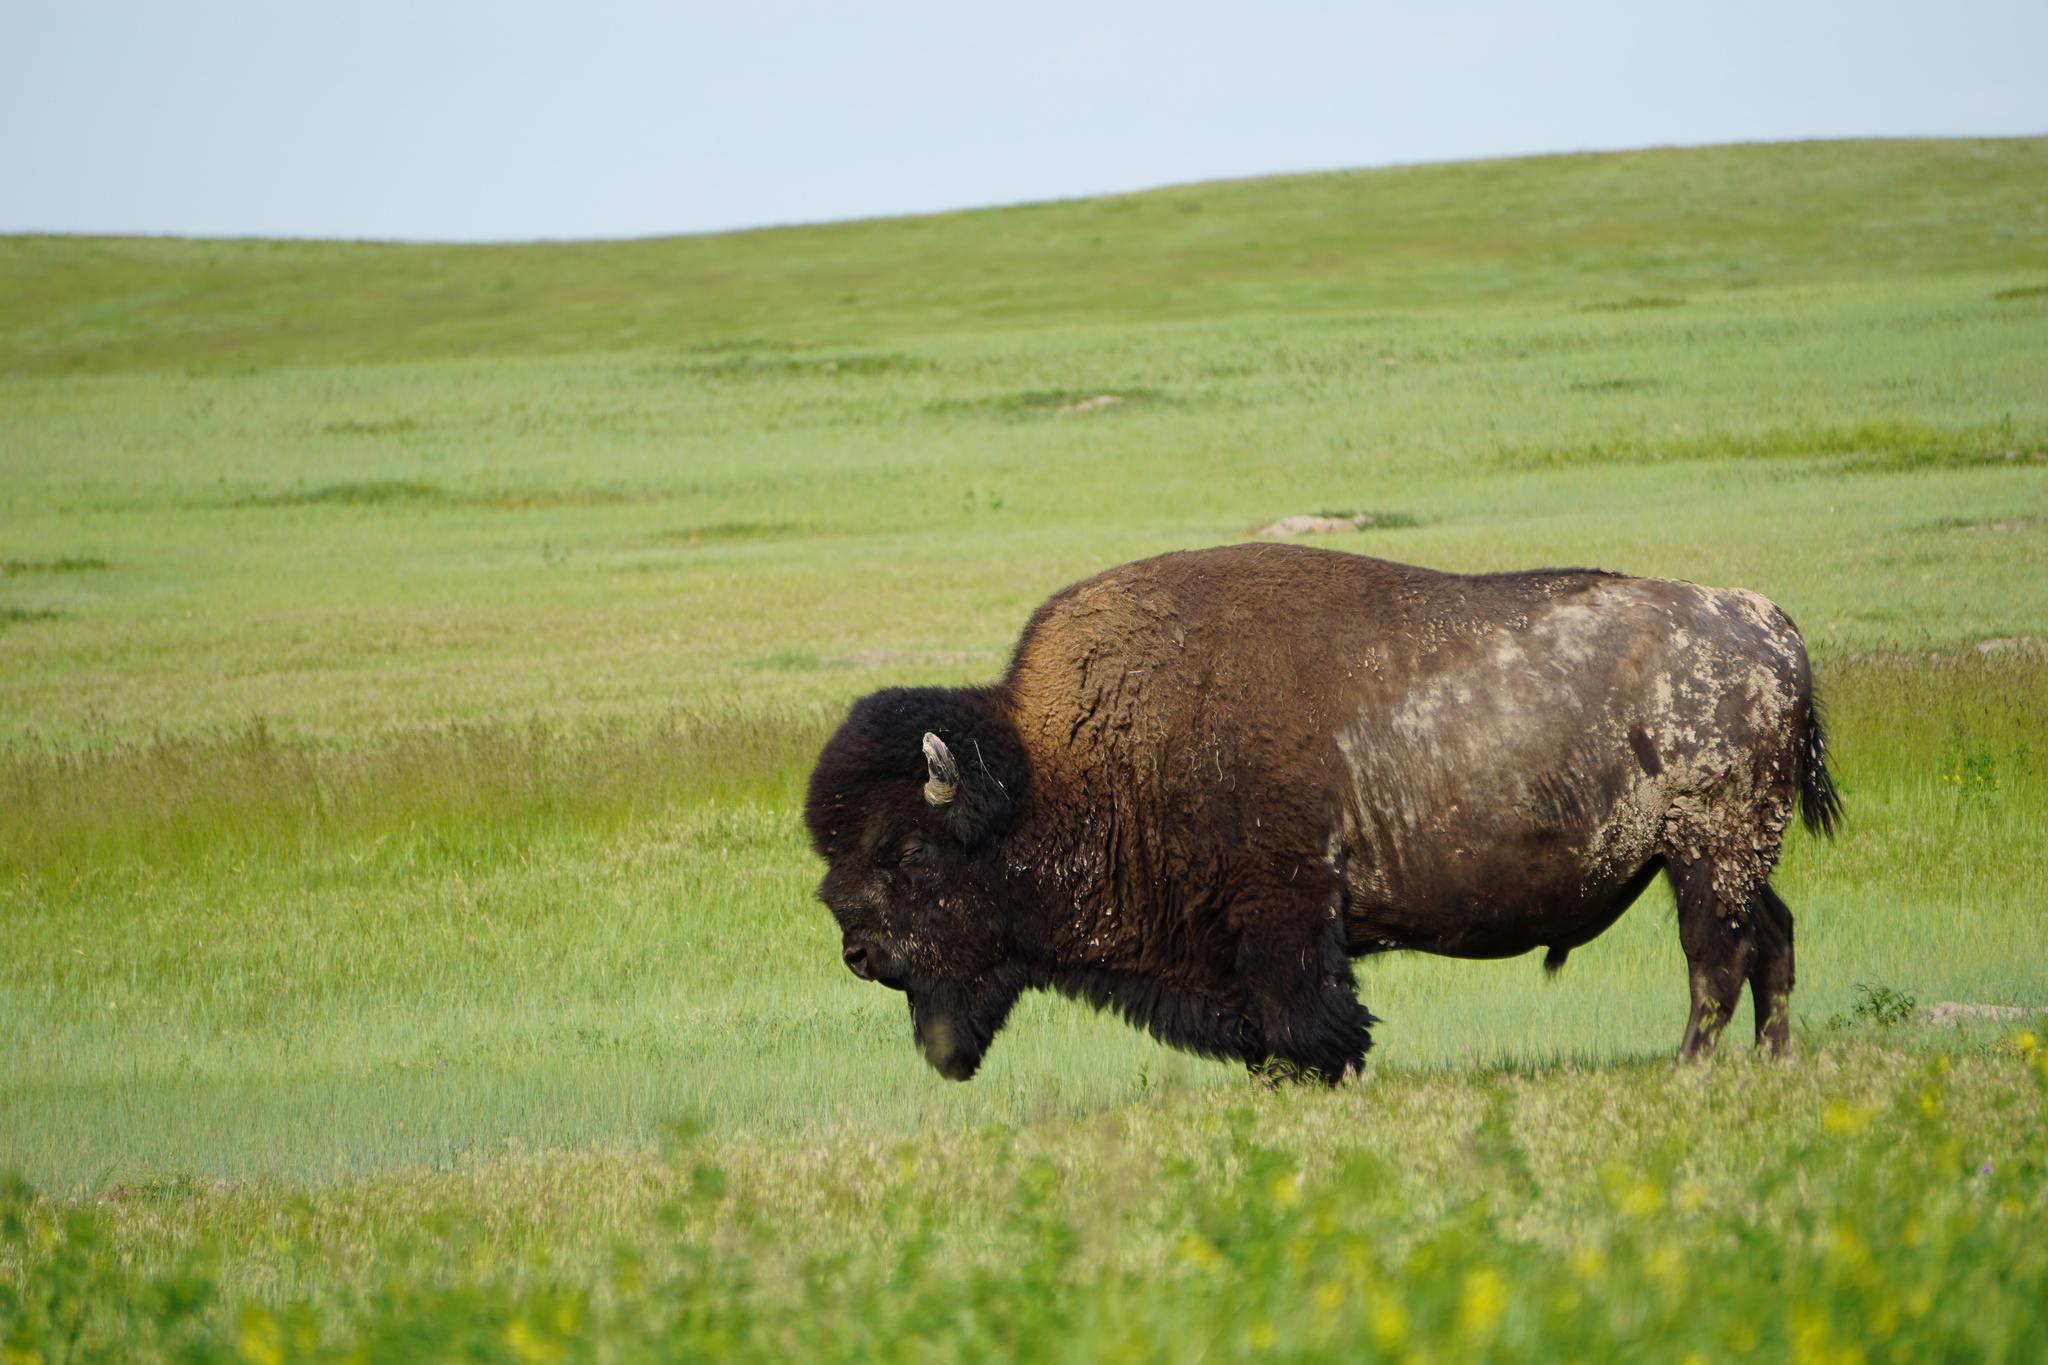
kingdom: Animalia
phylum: Chordata
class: Mammalia
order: Artiodactyla
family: Bovidae
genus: Bison
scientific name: Bison bison
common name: American bison
